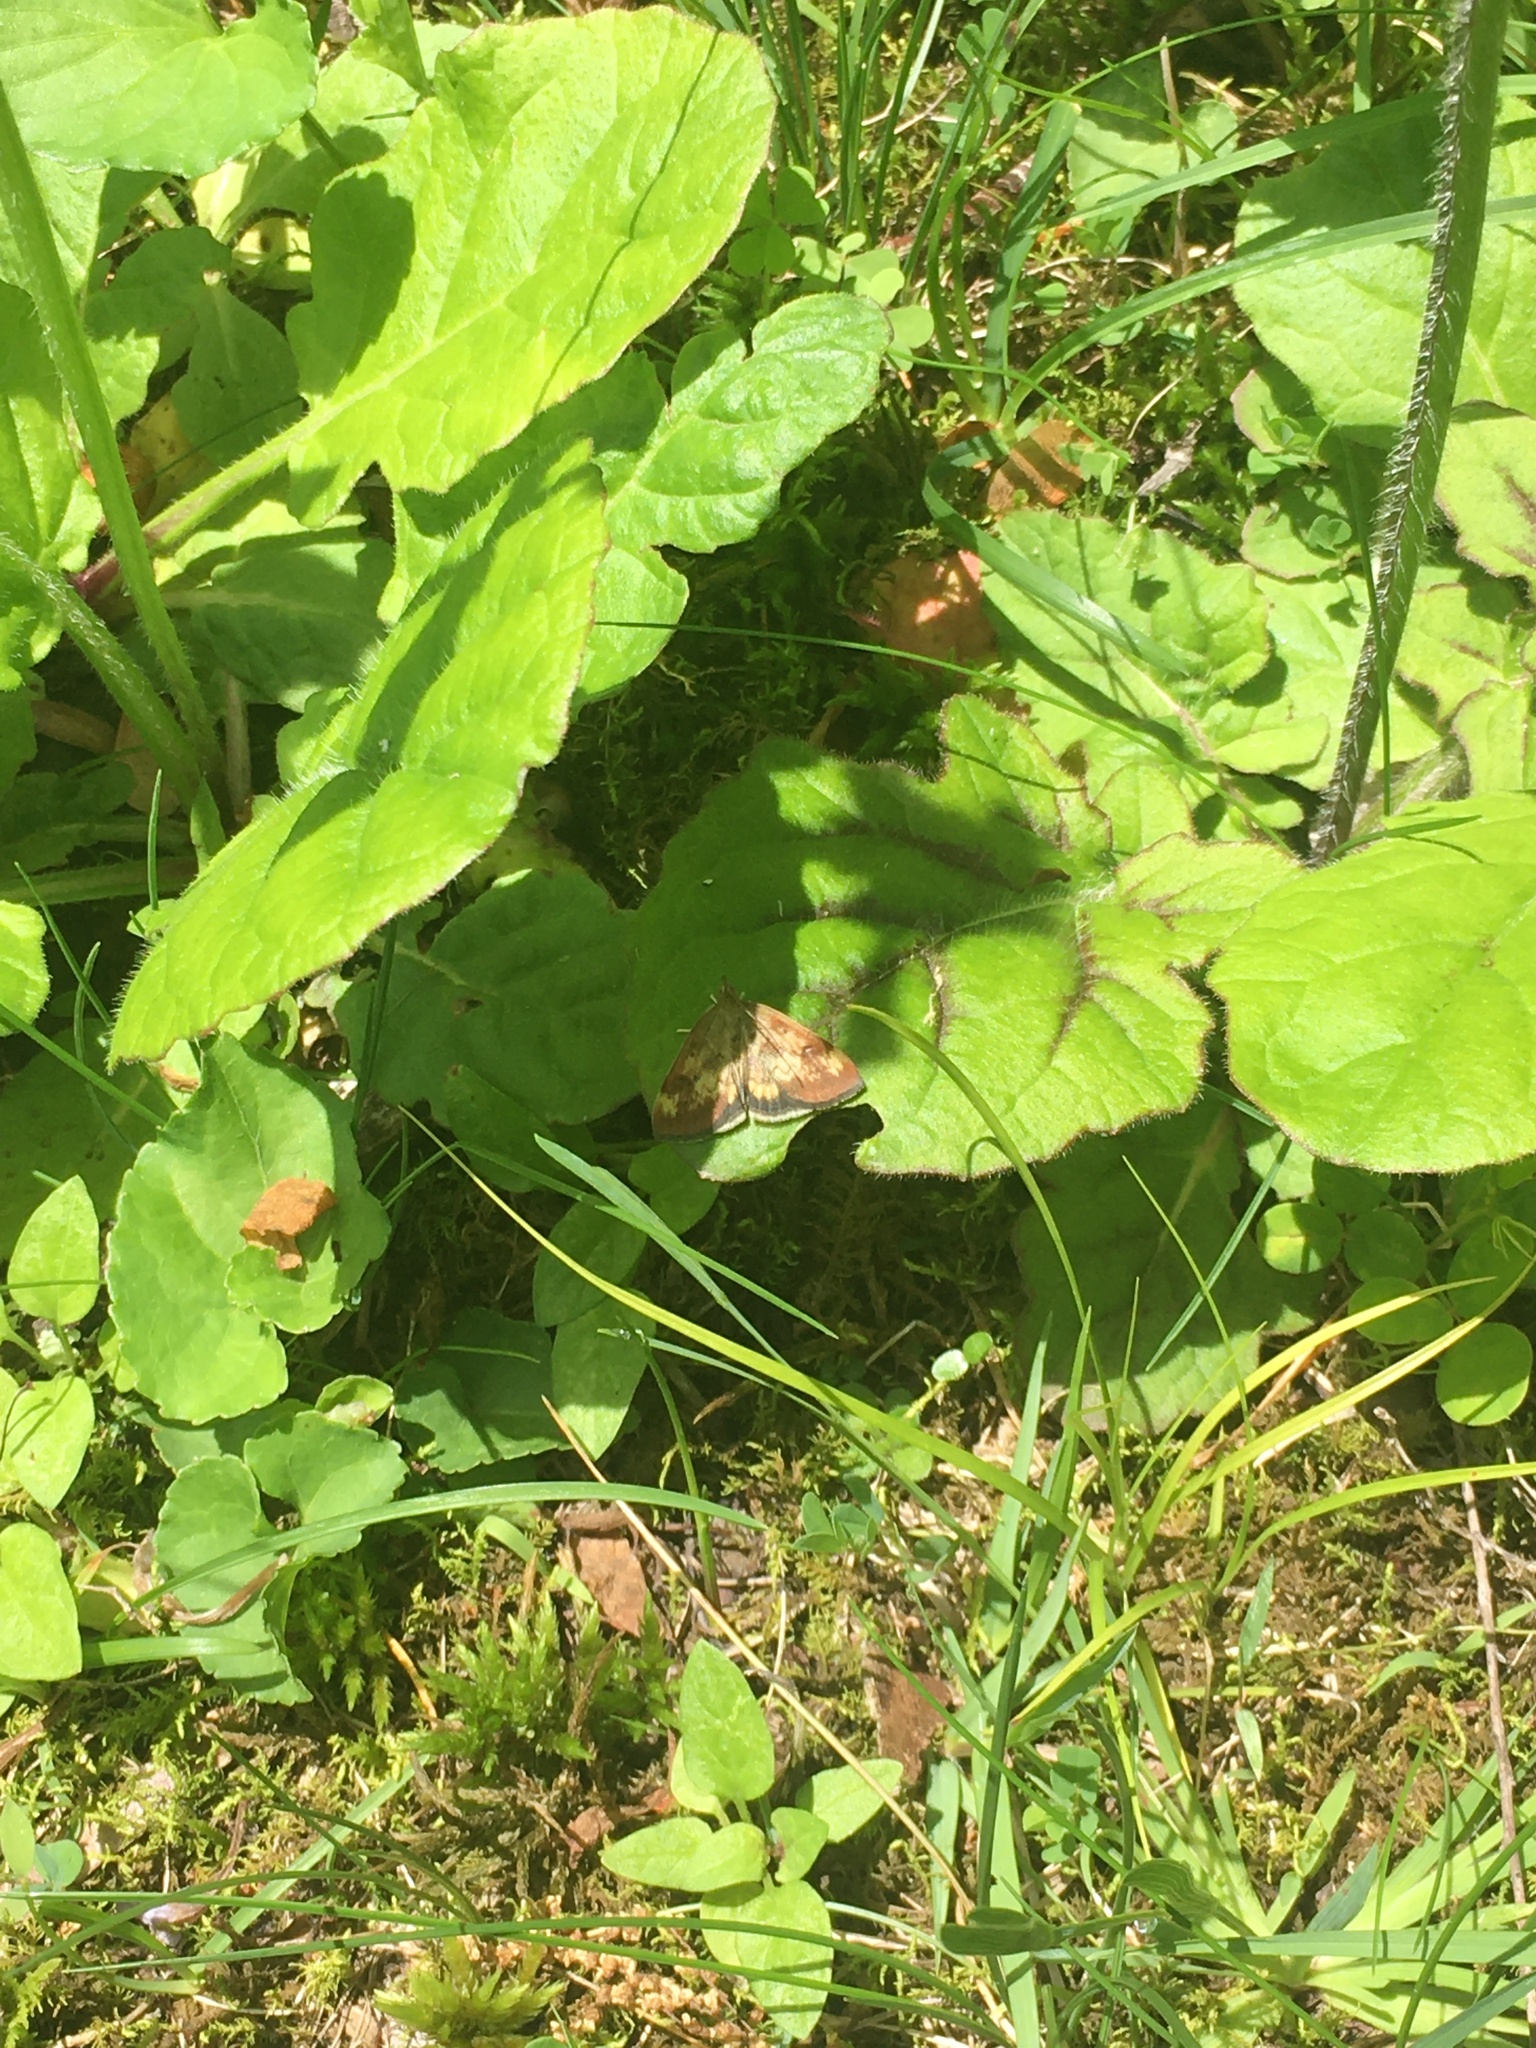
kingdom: Animalia
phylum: Arthropoda
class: Insecta
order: Lepidoptera
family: Crambidae
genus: Pyrausta
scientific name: Pyrausta homonymalis
